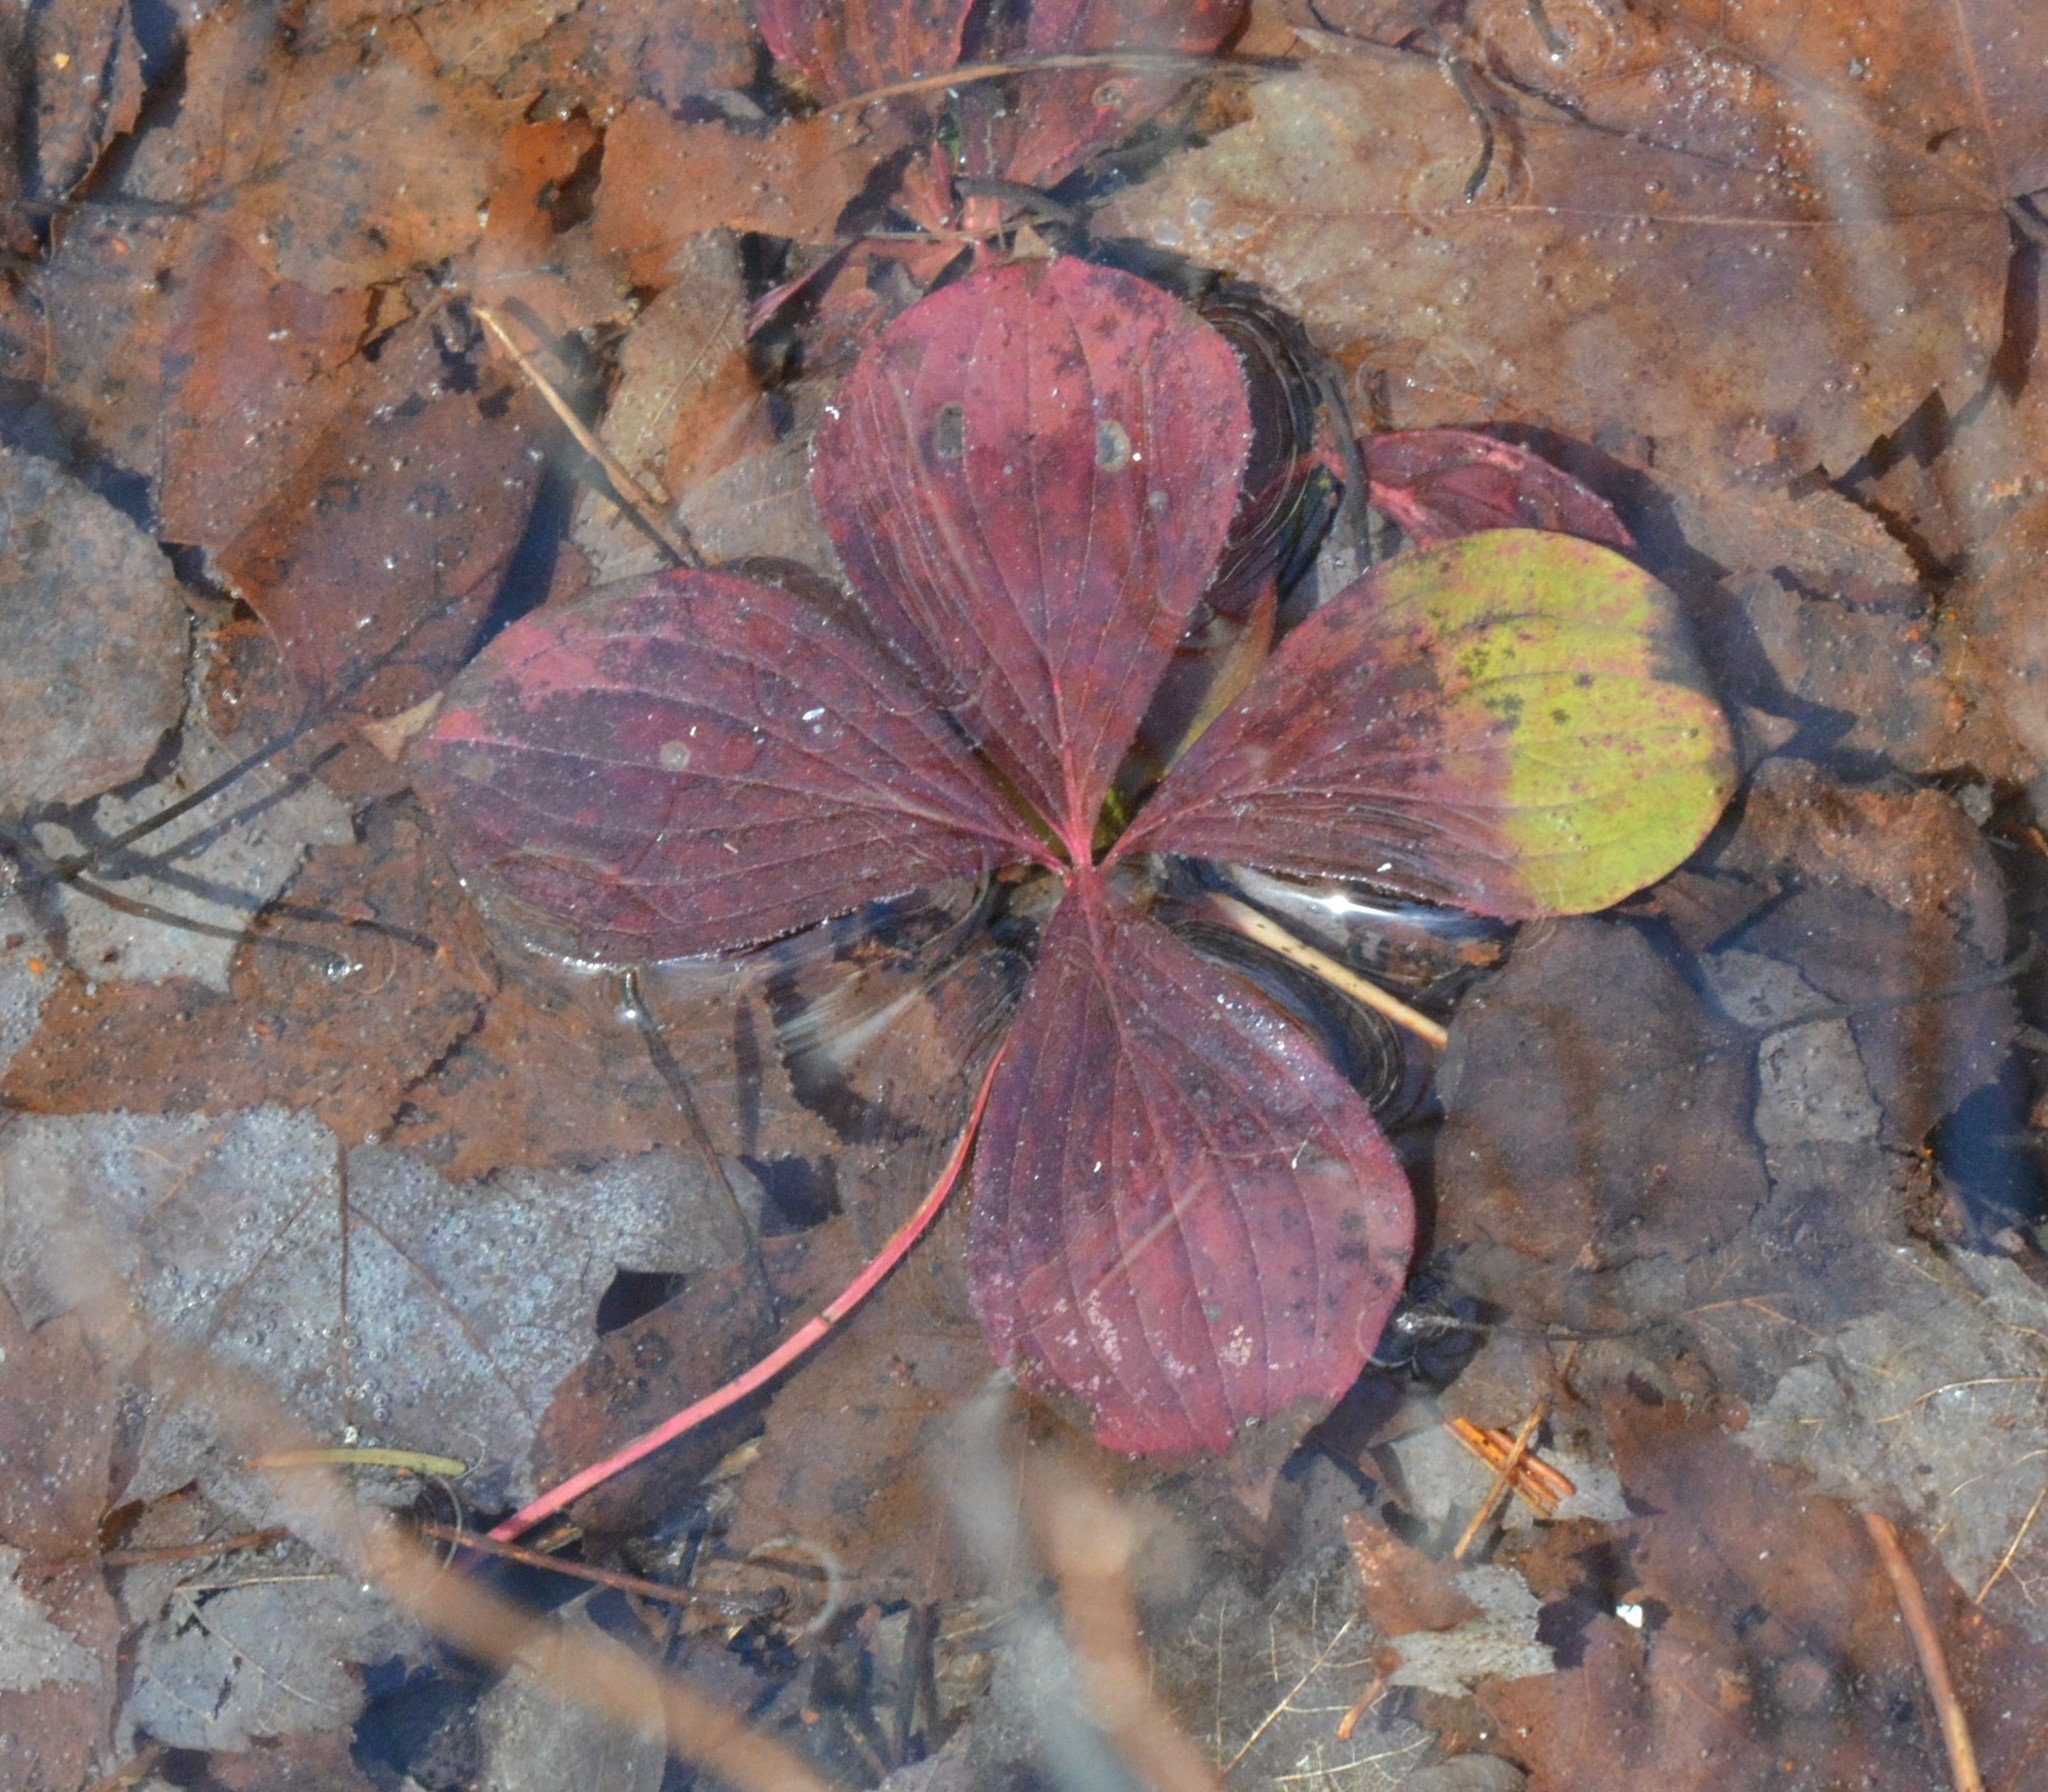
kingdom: Plantae
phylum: Tracheophyta
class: Magnoliopsida
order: Cornales
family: Cornaceae
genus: Cornus
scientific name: Cornus canadensis
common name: Creeping dogwood
